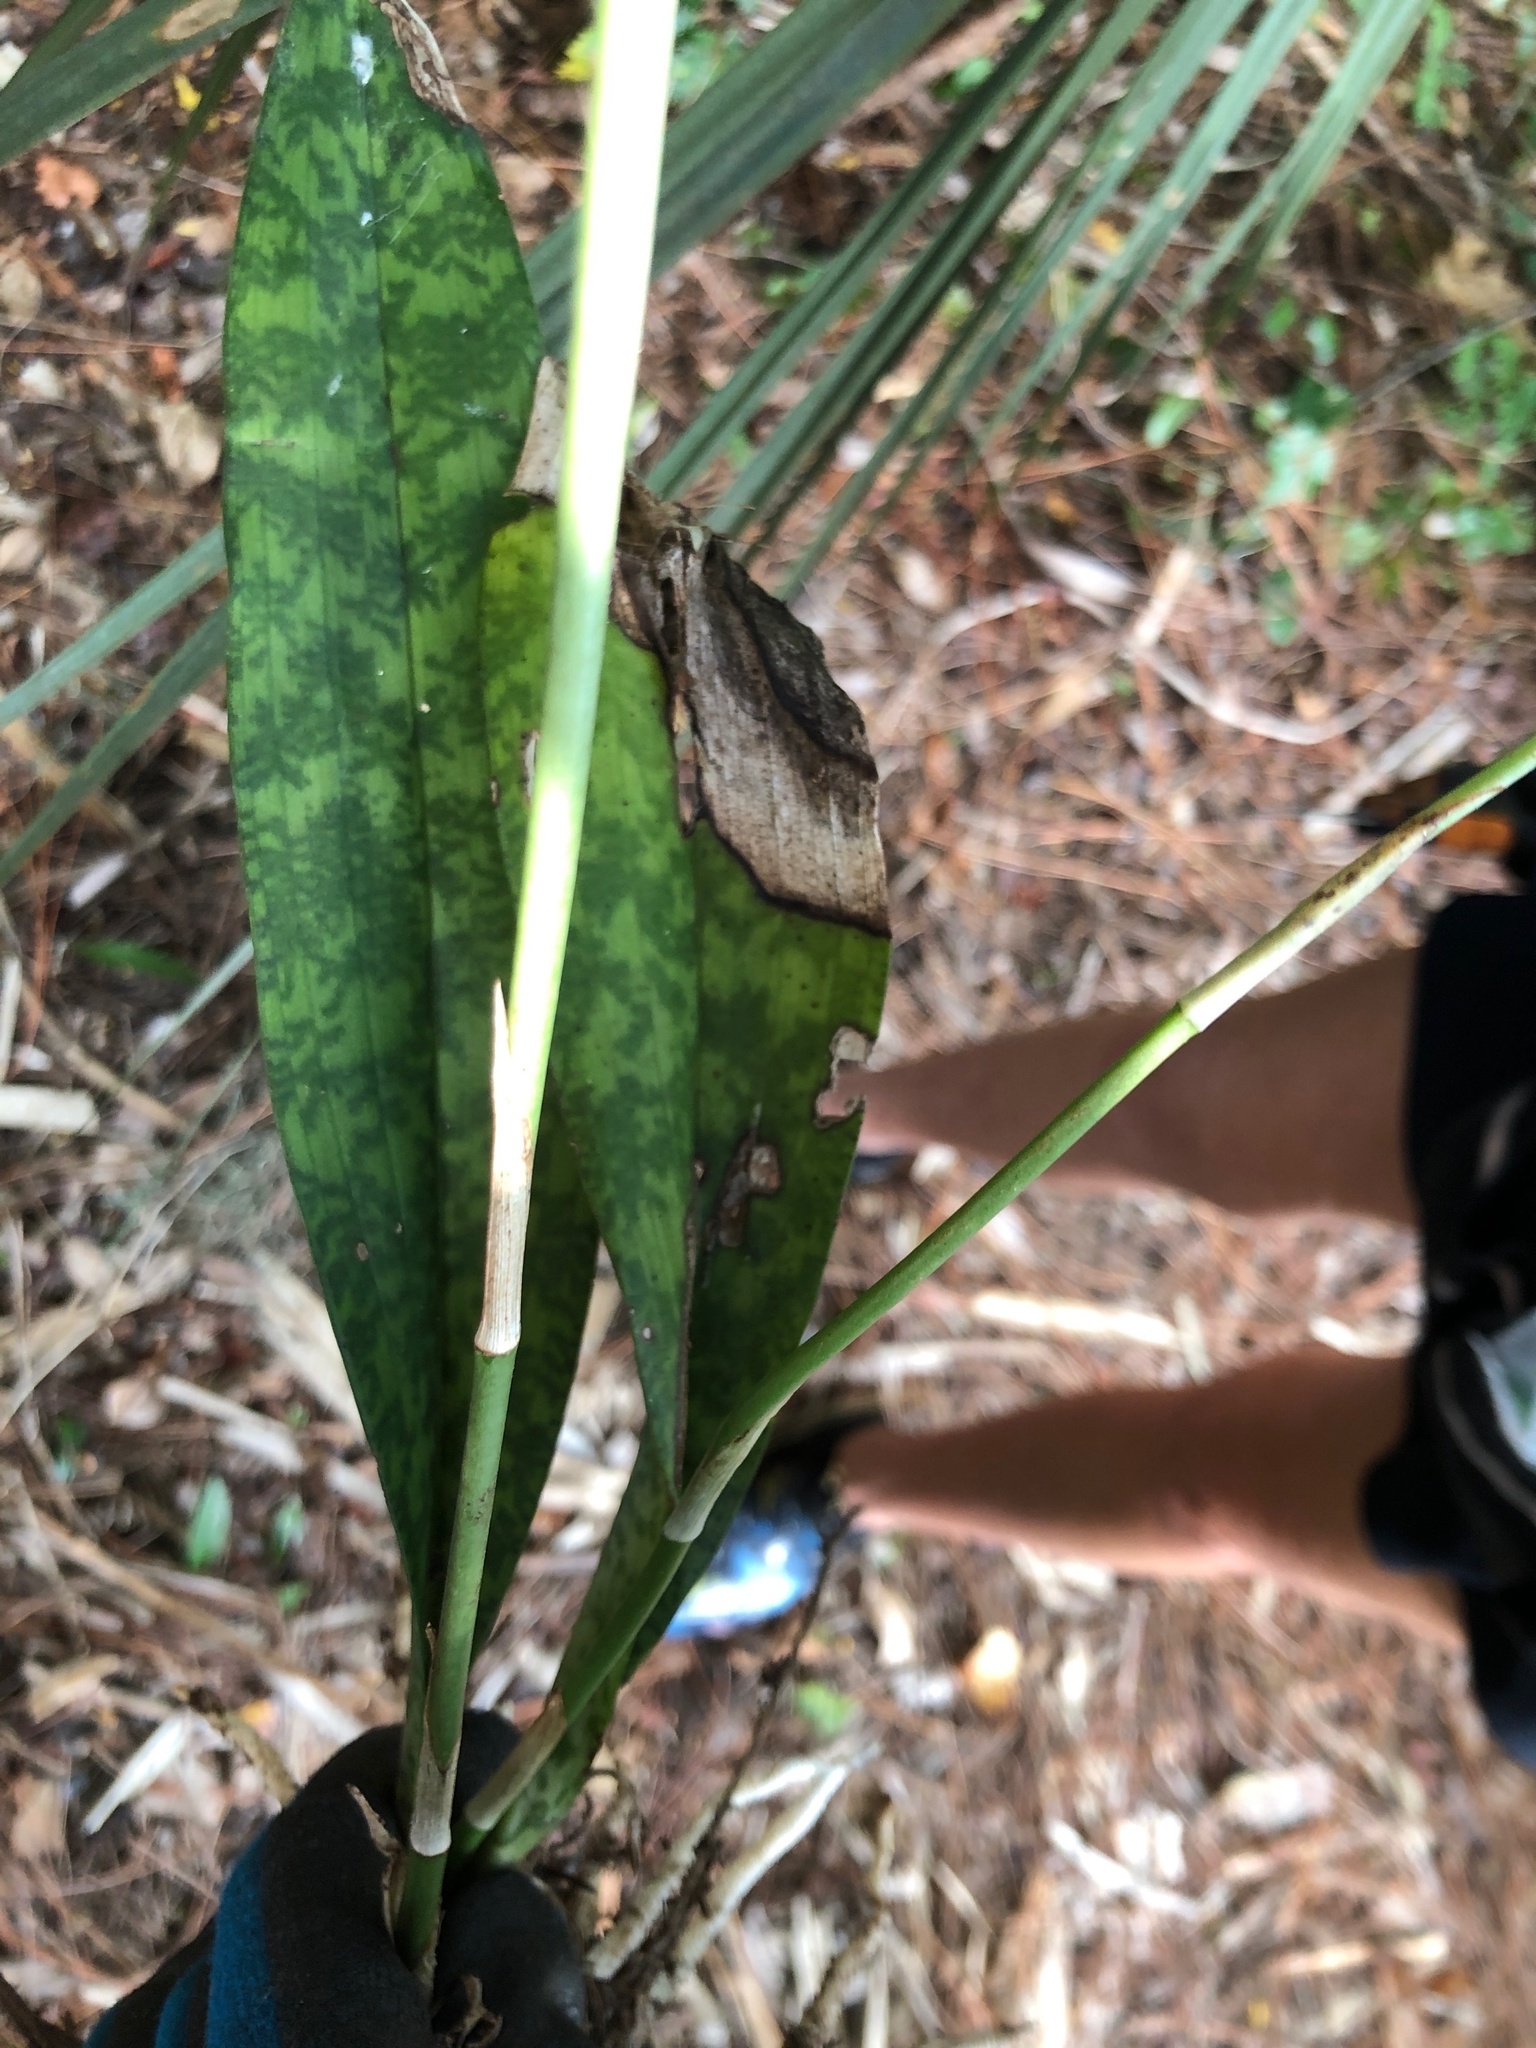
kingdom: Plantae
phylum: Tracheophyta
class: Liliopsida
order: Asparagales
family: Orchidaceae
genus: Eulophia
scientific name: Eulophia maculata
